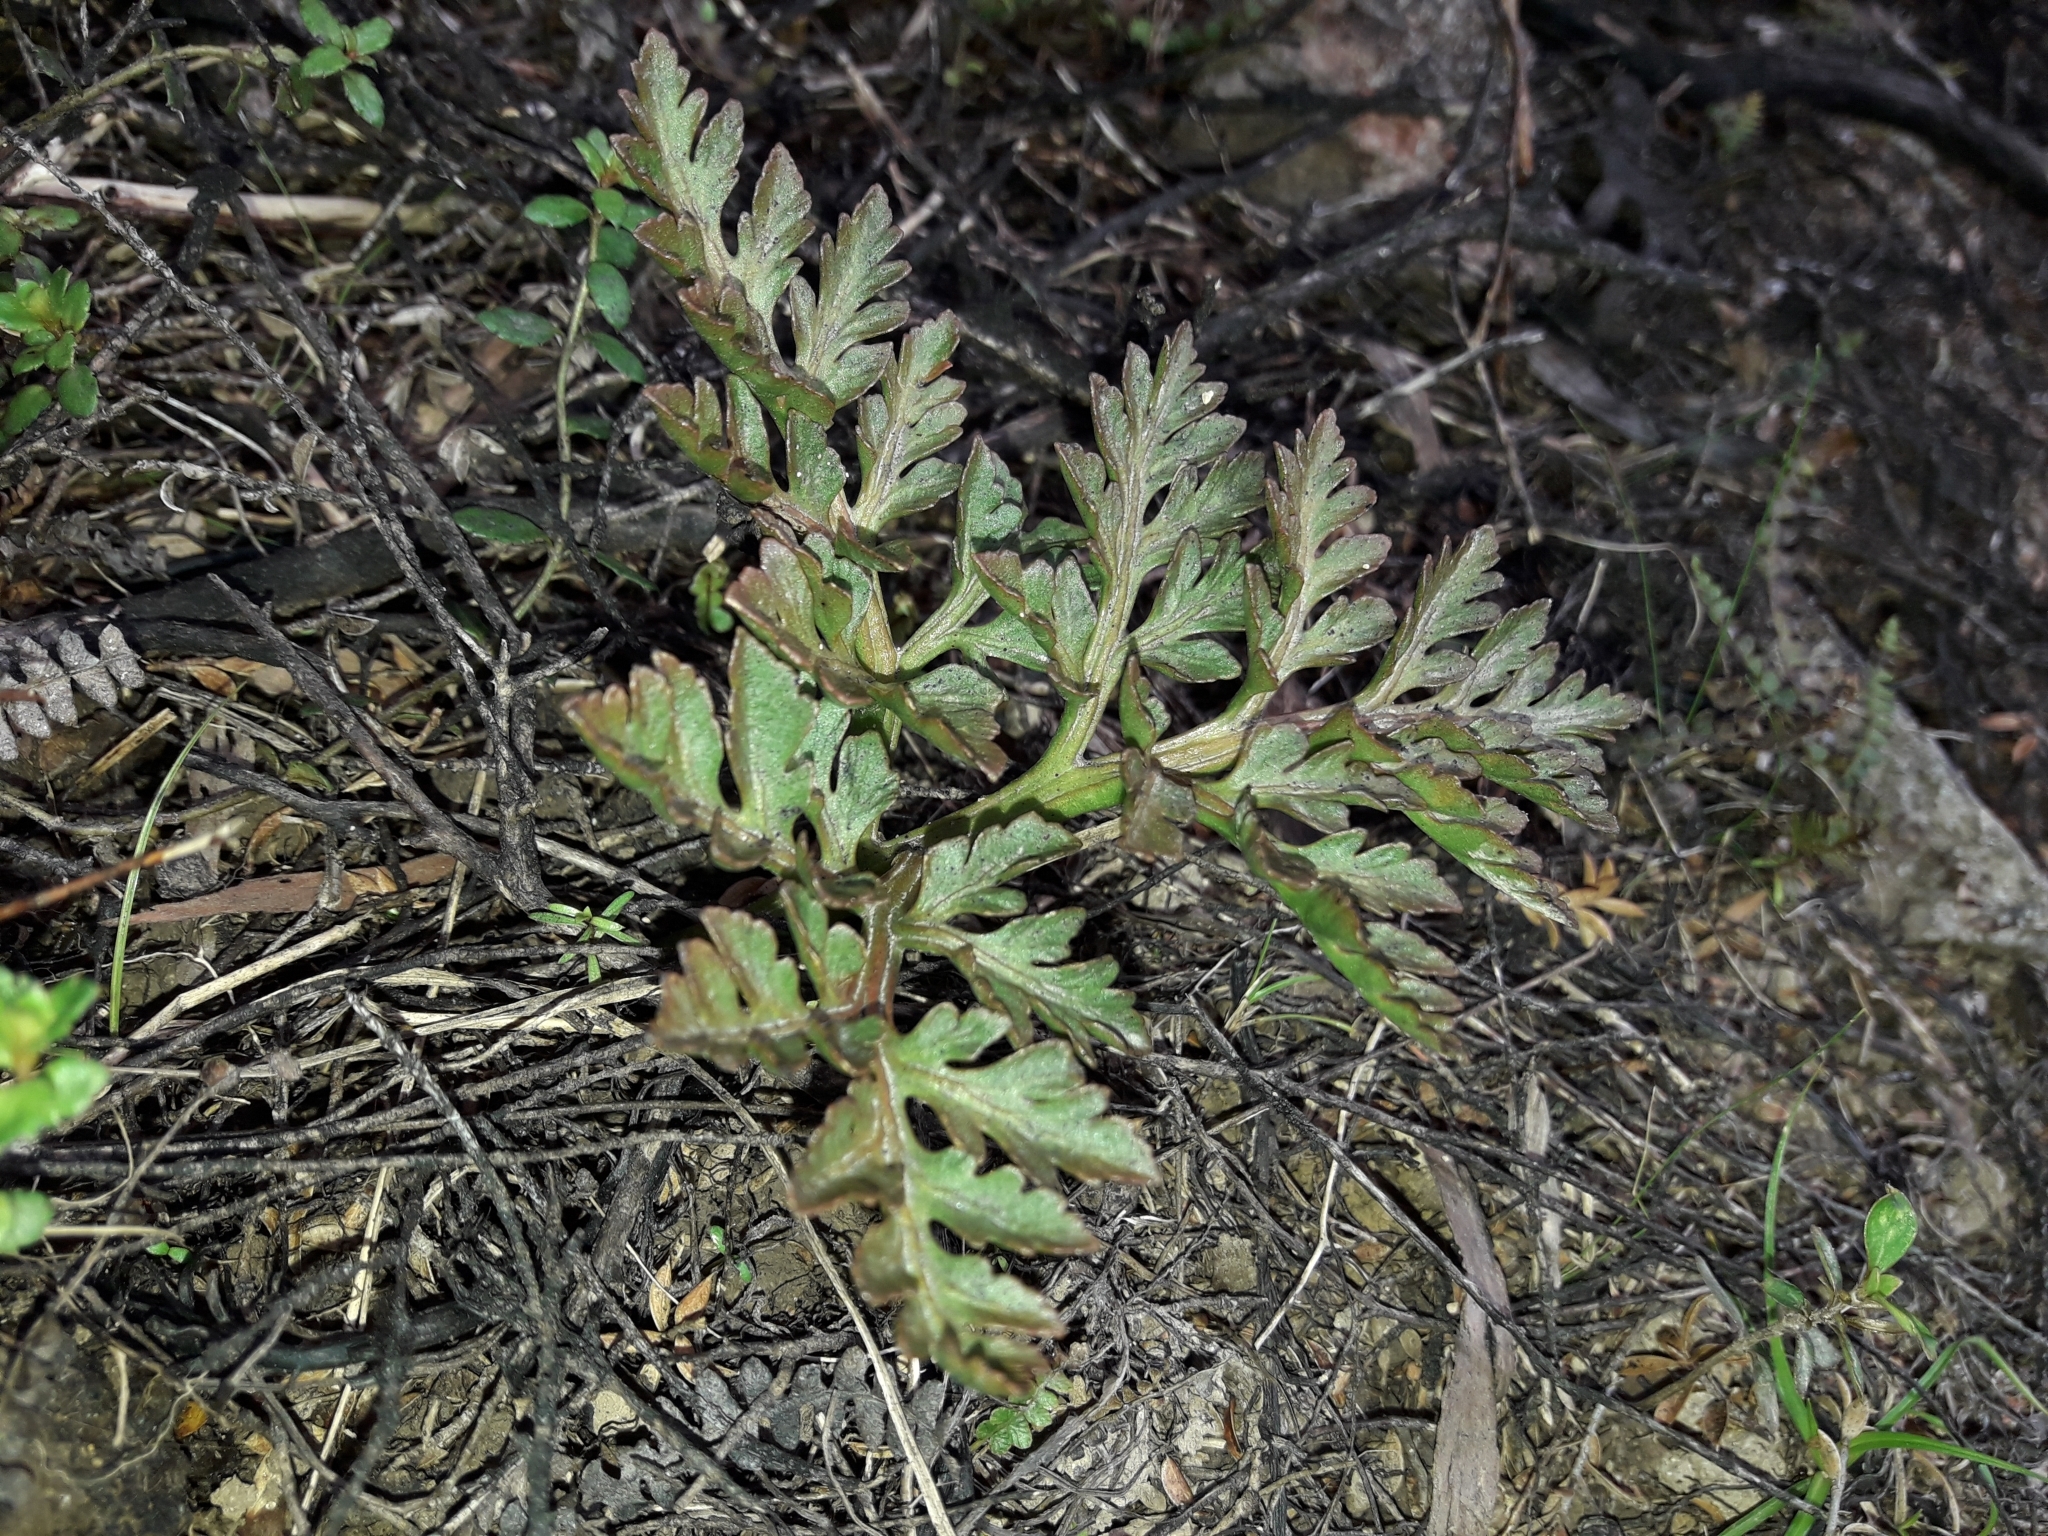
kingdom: Plantae
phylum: Tracheophyta
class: Polypodiopsida
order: Ophioglossales
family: Ophioglossaceae
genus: Sceptridium
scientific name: Sceptridium australe
